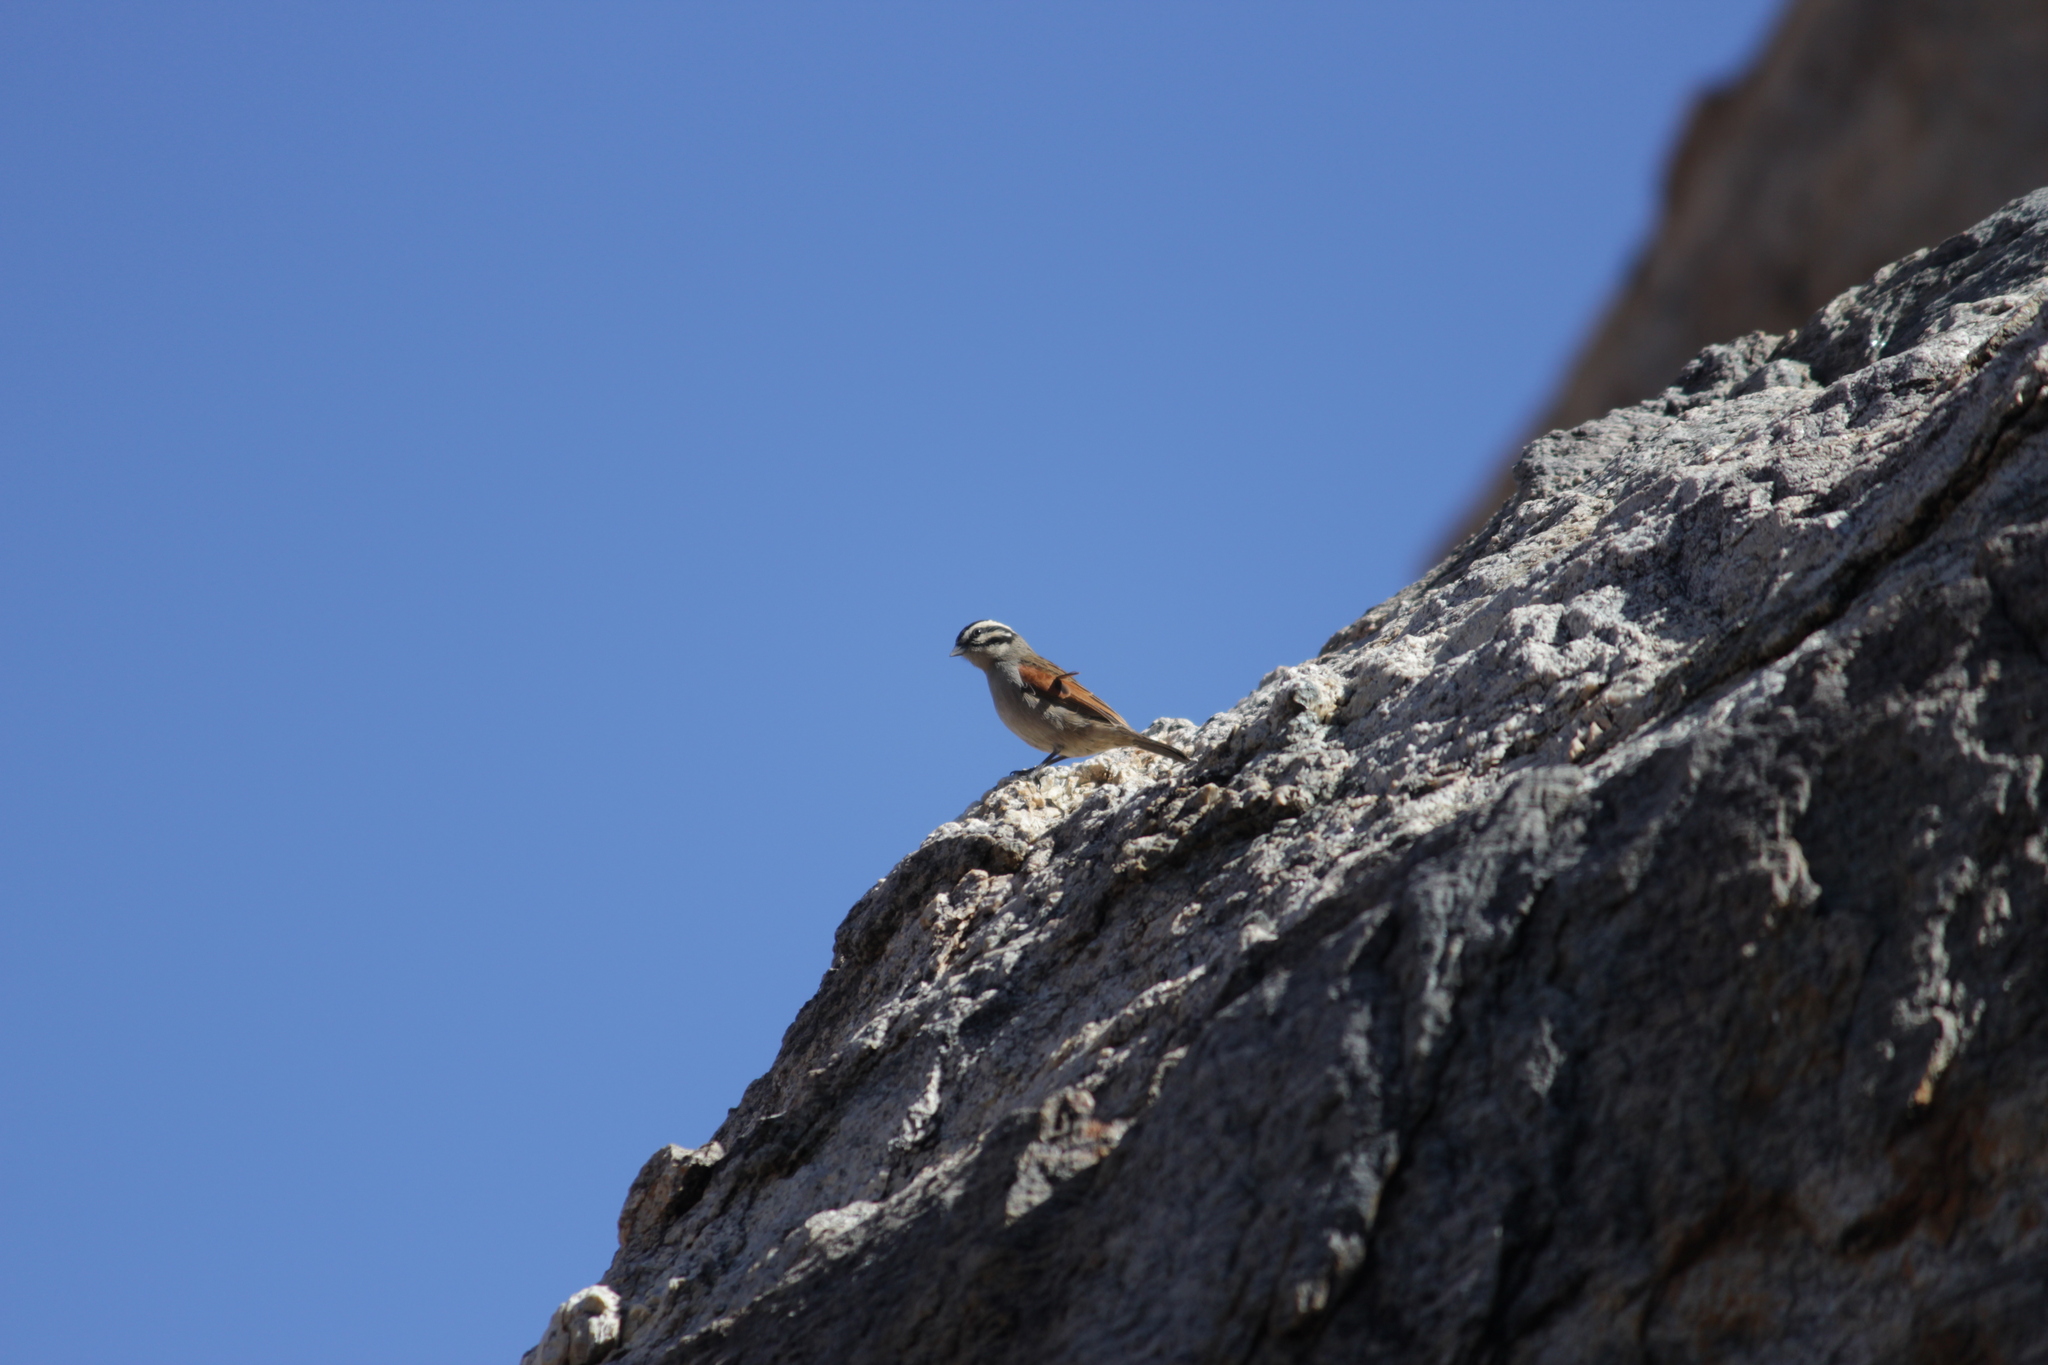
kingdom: Animalia
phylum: Chordata
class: Aves
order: Passeriformes
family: Emberizidae
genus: Emberiza
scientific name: Emberiza capensis
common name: Cape bunting
